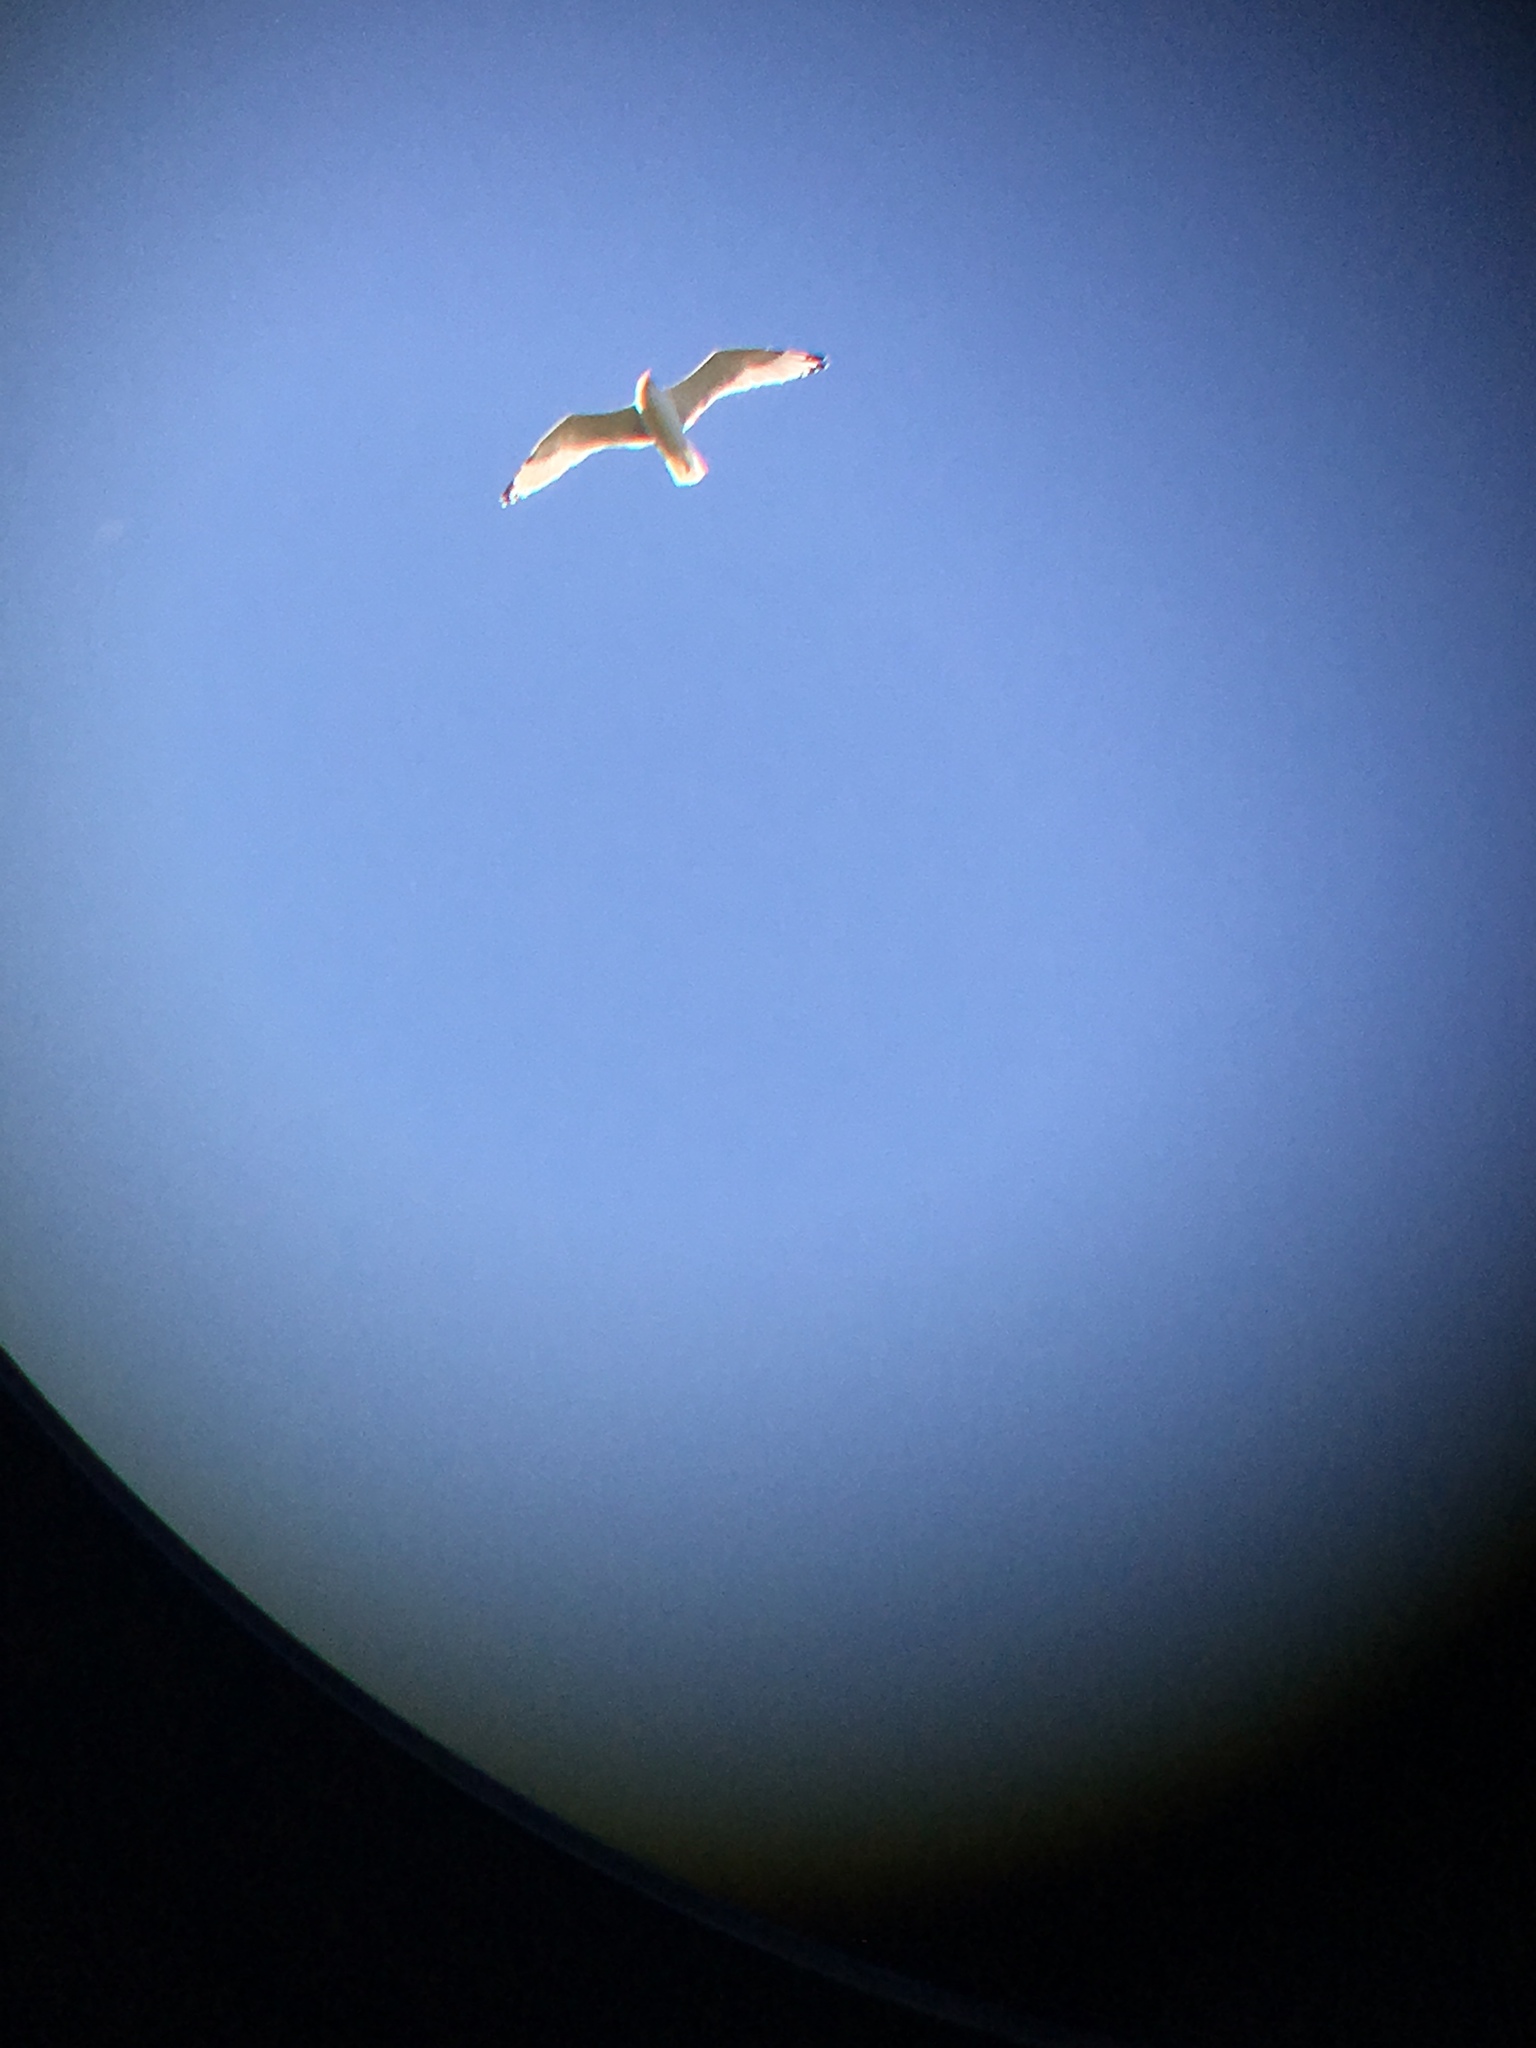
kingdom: Animalia
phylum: Chordata
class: Aves
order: Charadriiformes
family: Laridae
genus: Larus
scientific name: Larus
